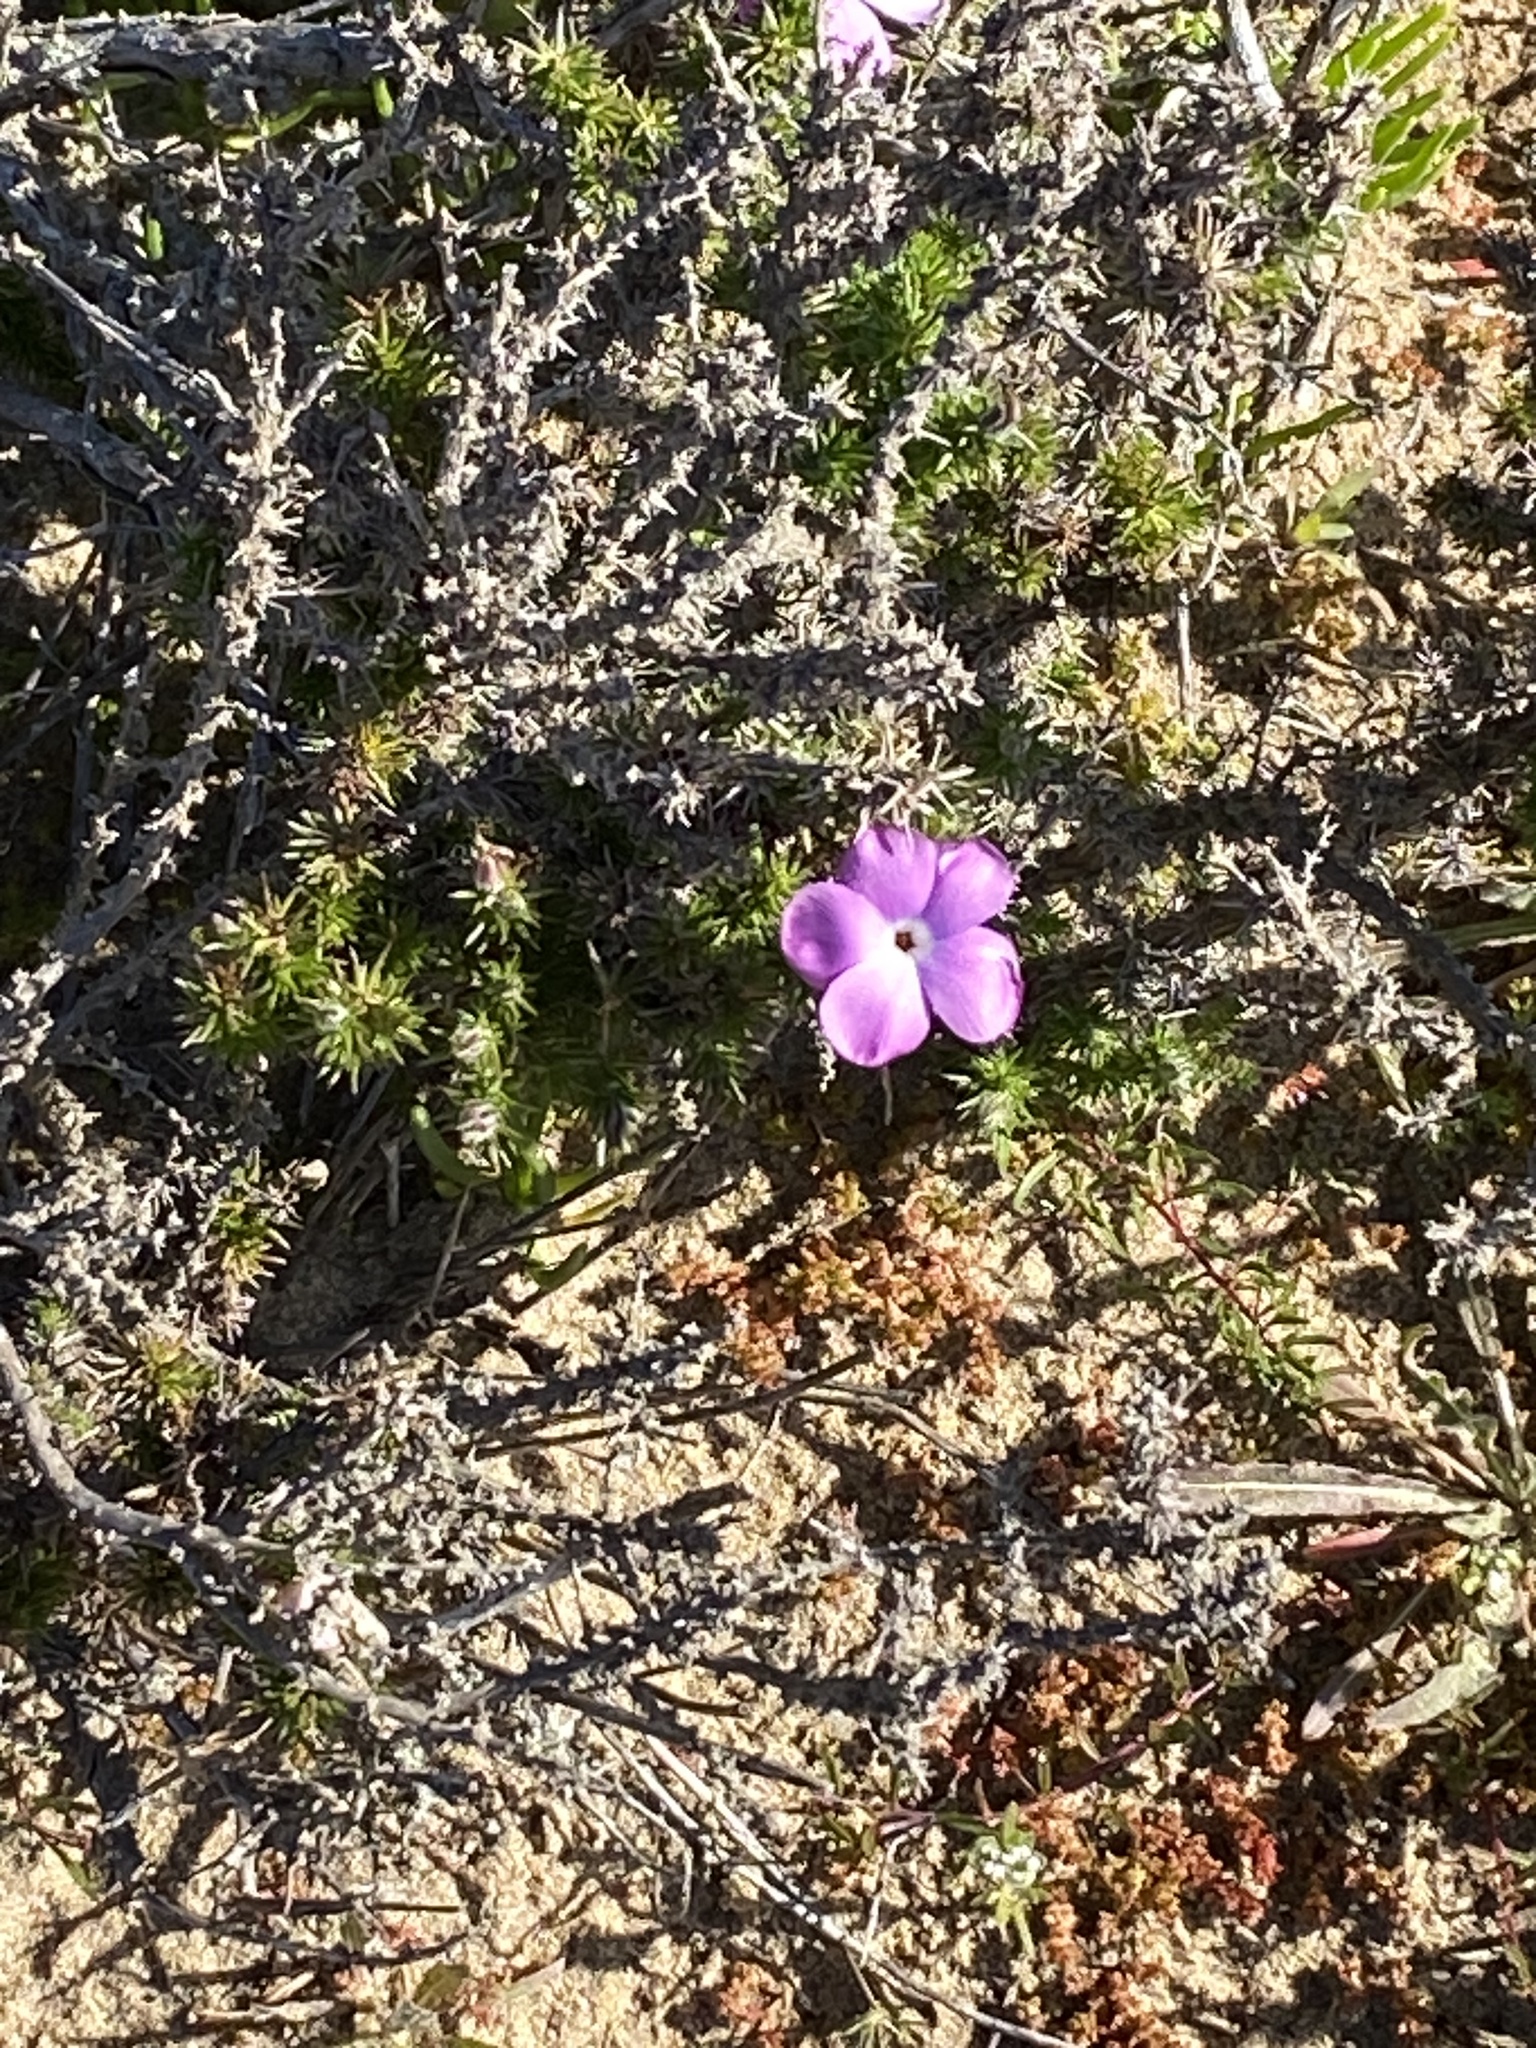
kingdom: Plantae
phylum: Tracheophyta
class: Magnoliopsida
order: Ericales
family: Polemoniaceae
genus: Linanthus
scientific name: Linanthus californicus
